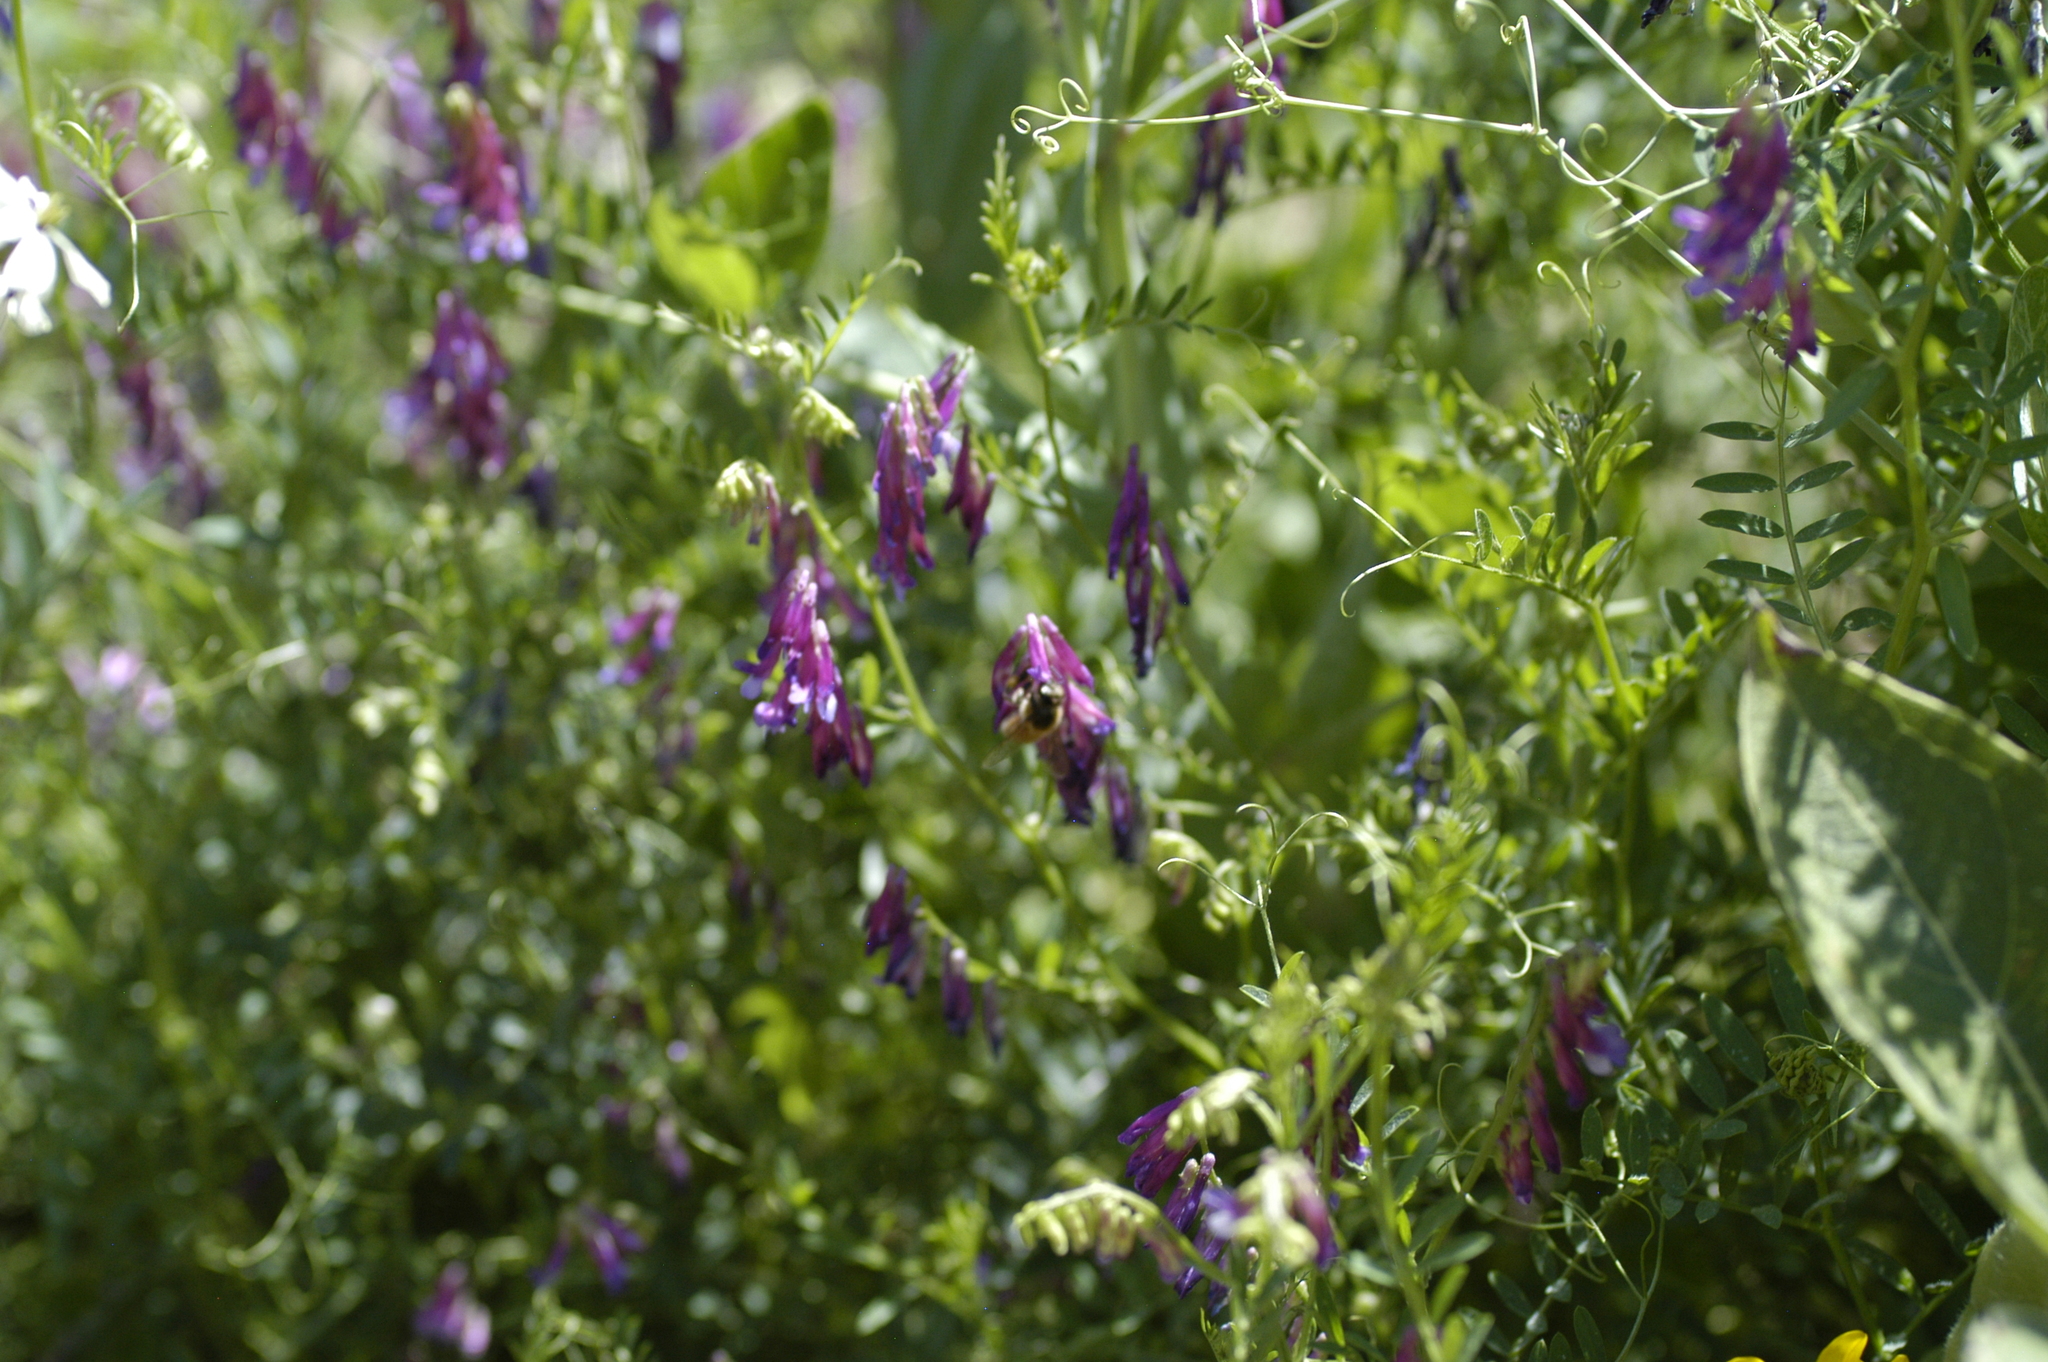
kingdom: Animalia
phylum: Arthropoda
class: Insecta
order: Hymenoptera
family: Apidae
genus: Apis
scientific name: Apis mellifera
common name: Honey bee
